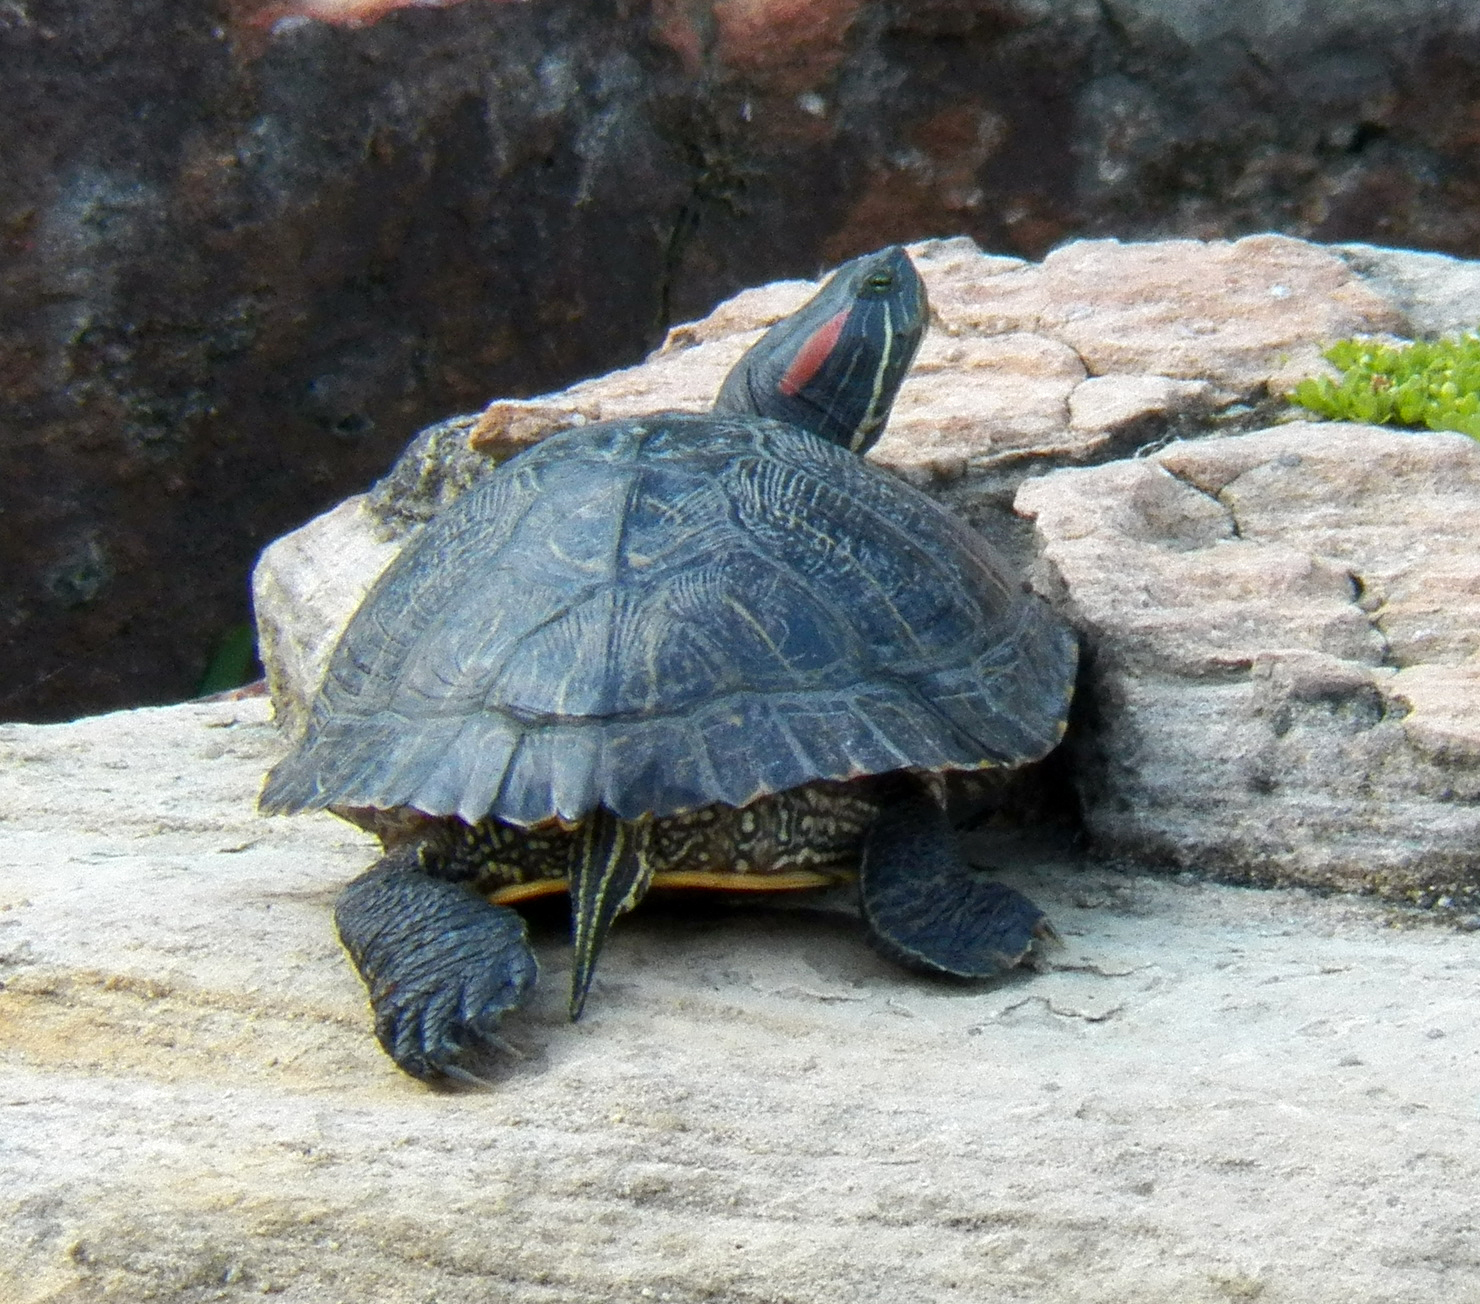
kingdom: Animalia
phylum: Chordata
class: Testudines
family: Emydidae
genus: Trachemys
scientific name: Trachemys scripta
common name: Slider
